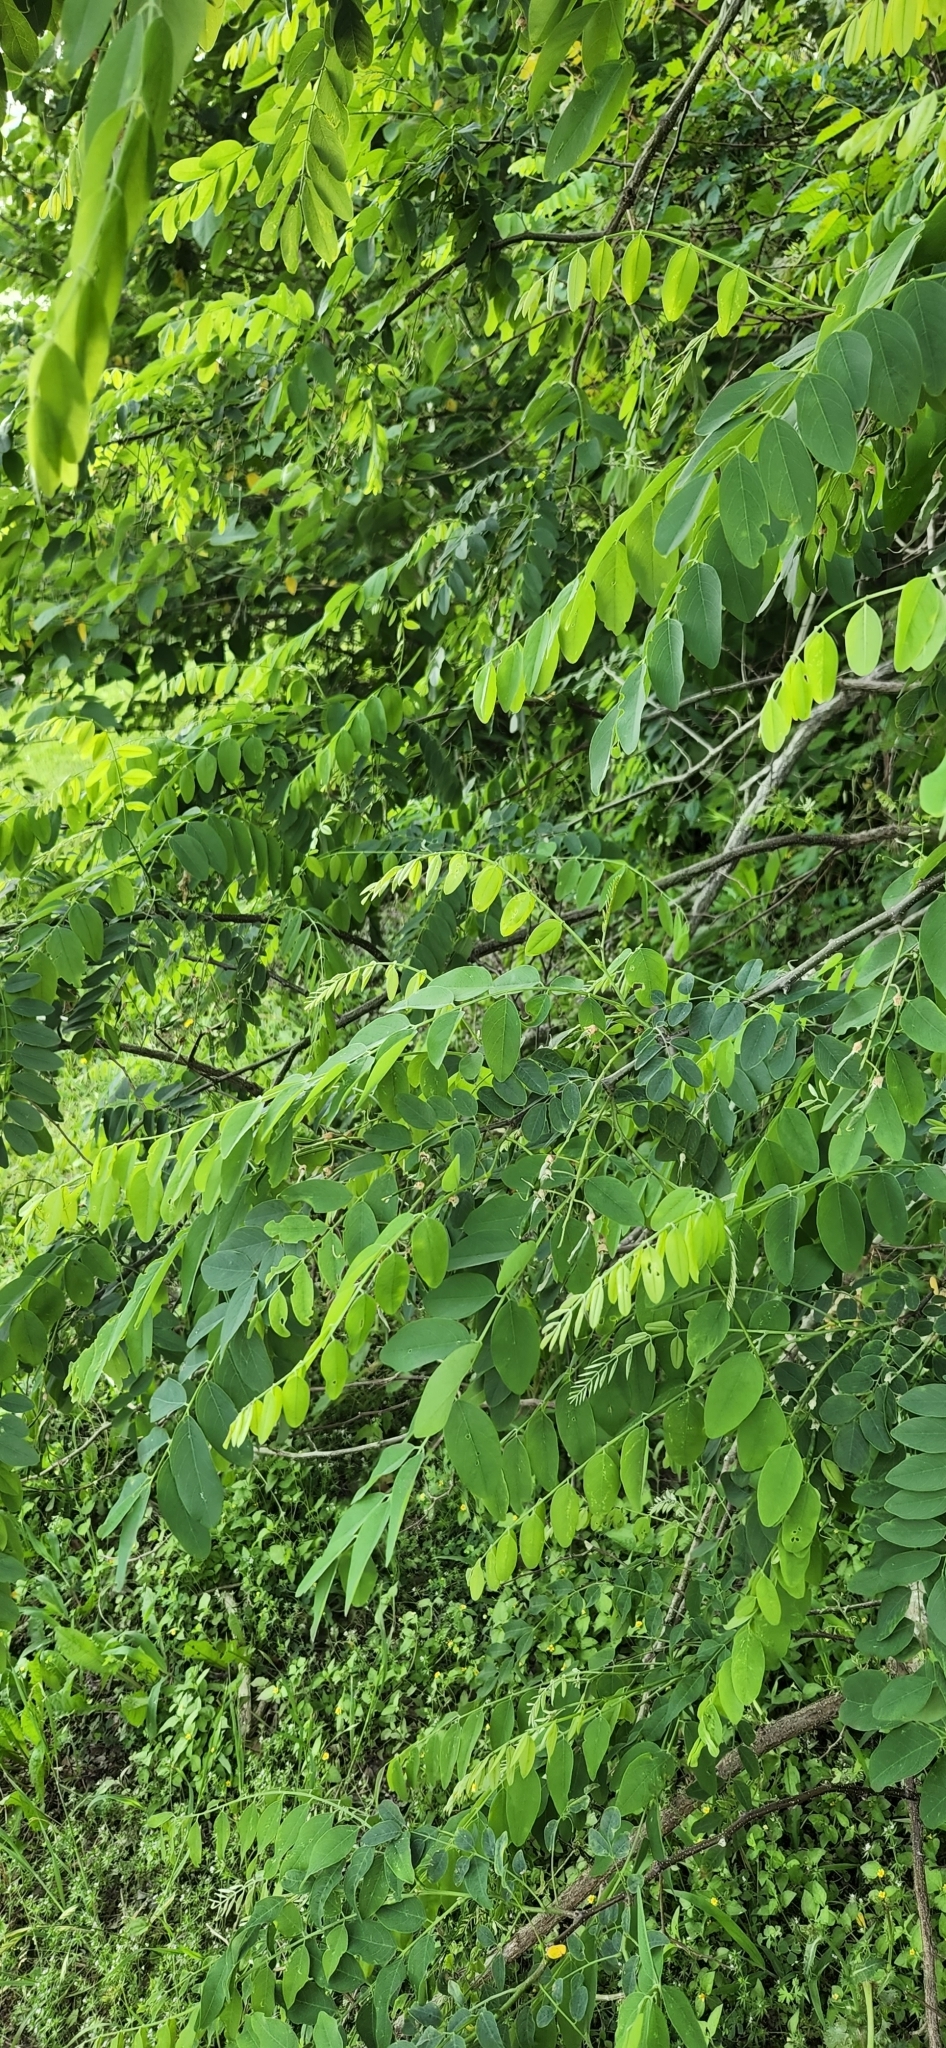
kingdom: Plantae
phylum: Tracheophyta
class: Magnoliopsida
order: Fabales
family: Fabaceae
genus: Robinia
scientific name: Robinia pseudoacacia
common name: Black locust
